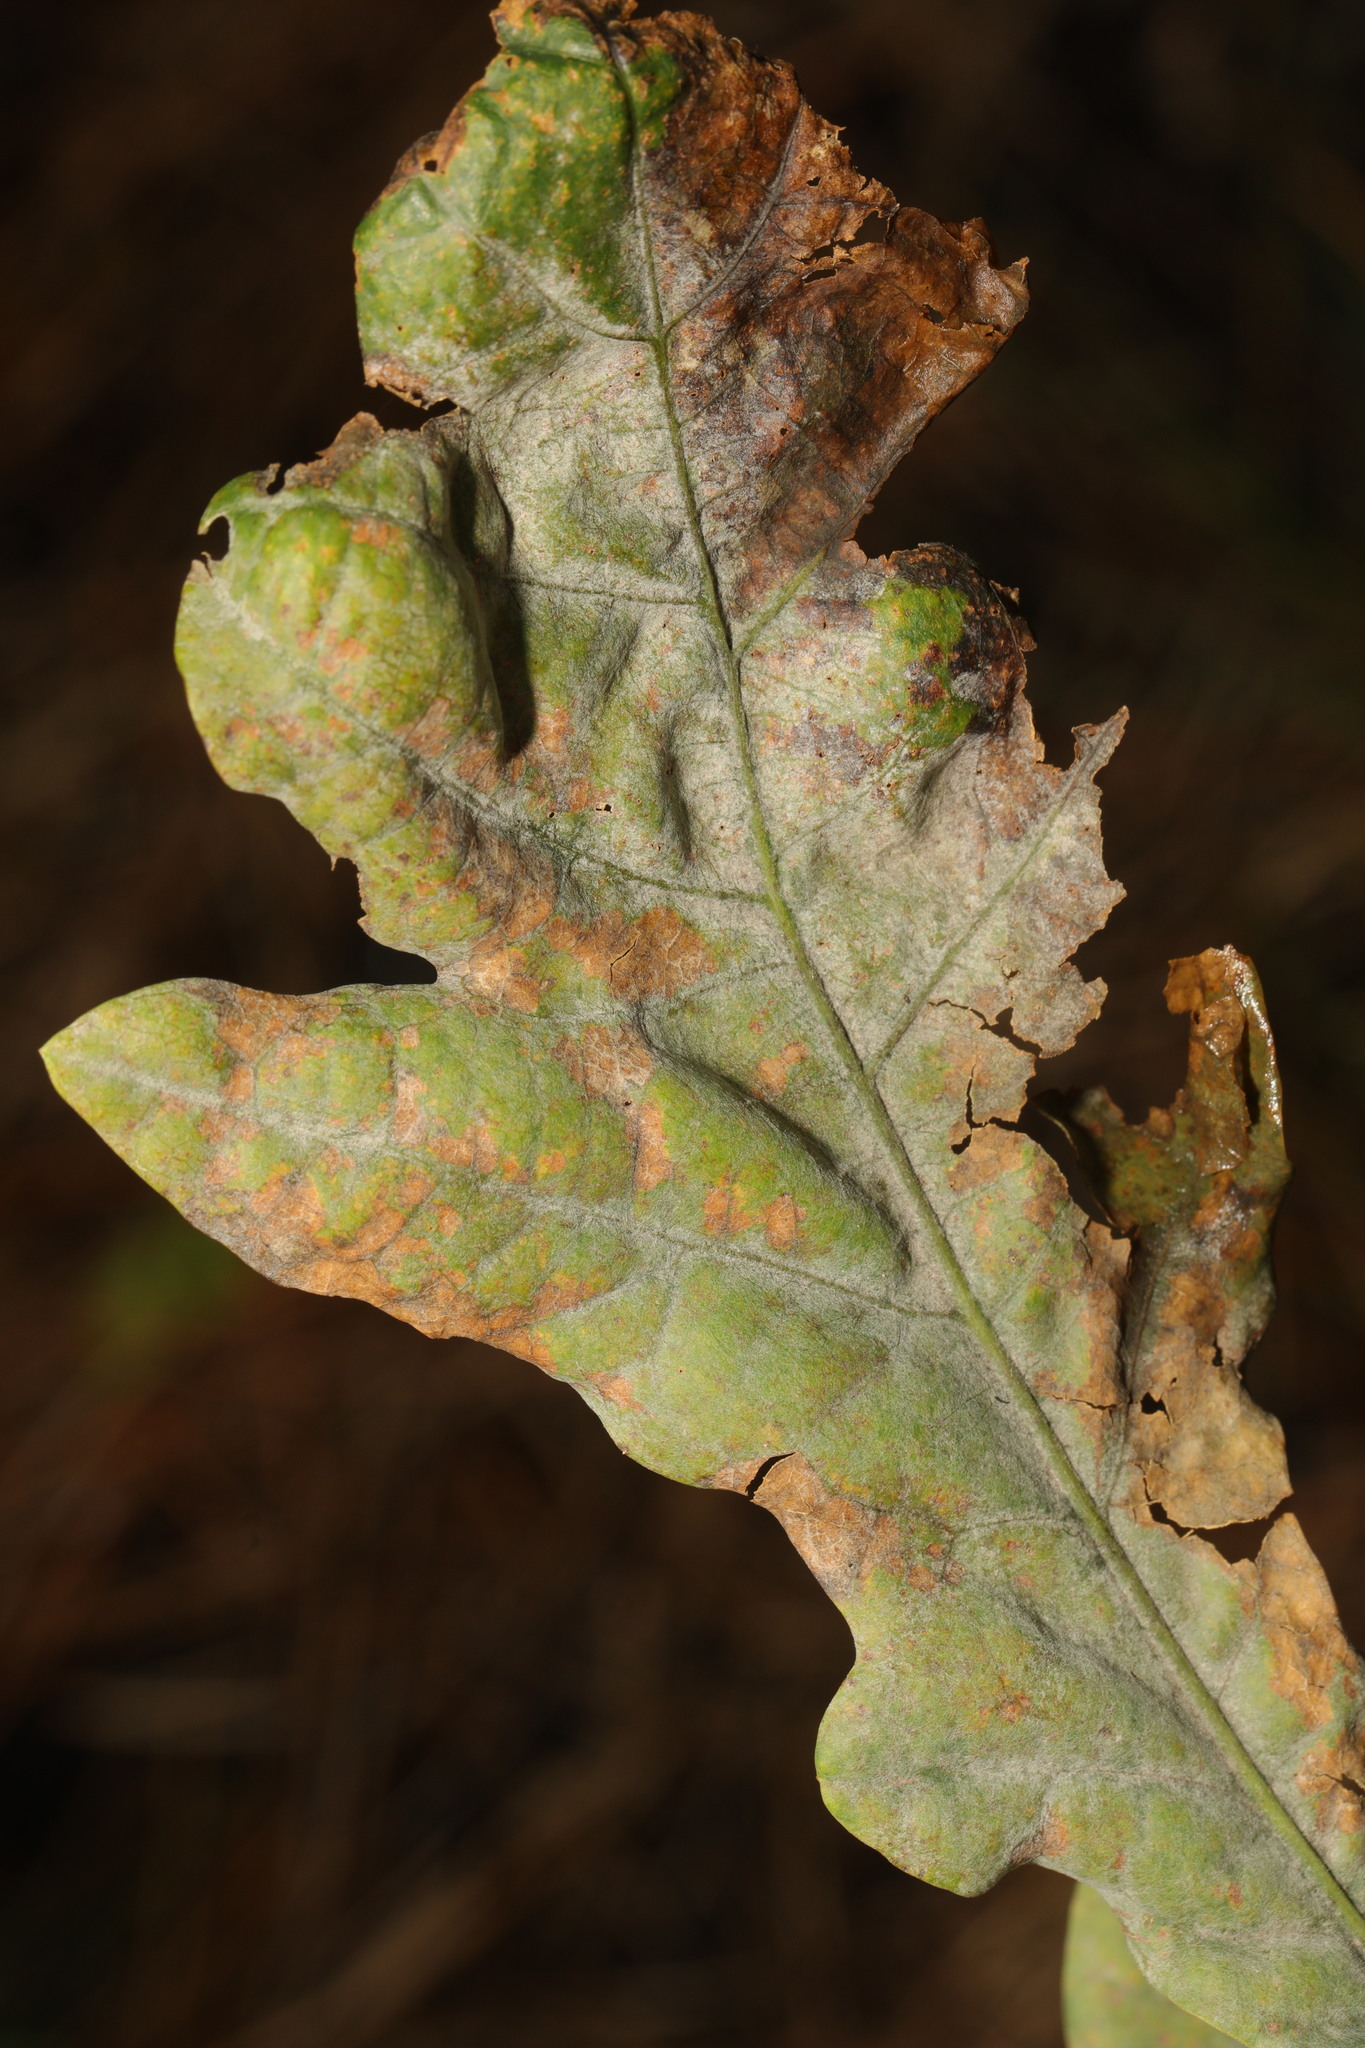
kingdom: Fungi
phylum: Ascomycota
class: Leotiomycetes
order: Helotiales
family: Erysiphaceae
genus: Erysiphe
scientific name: Erysiphe alphitoides
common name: Oak mildew
